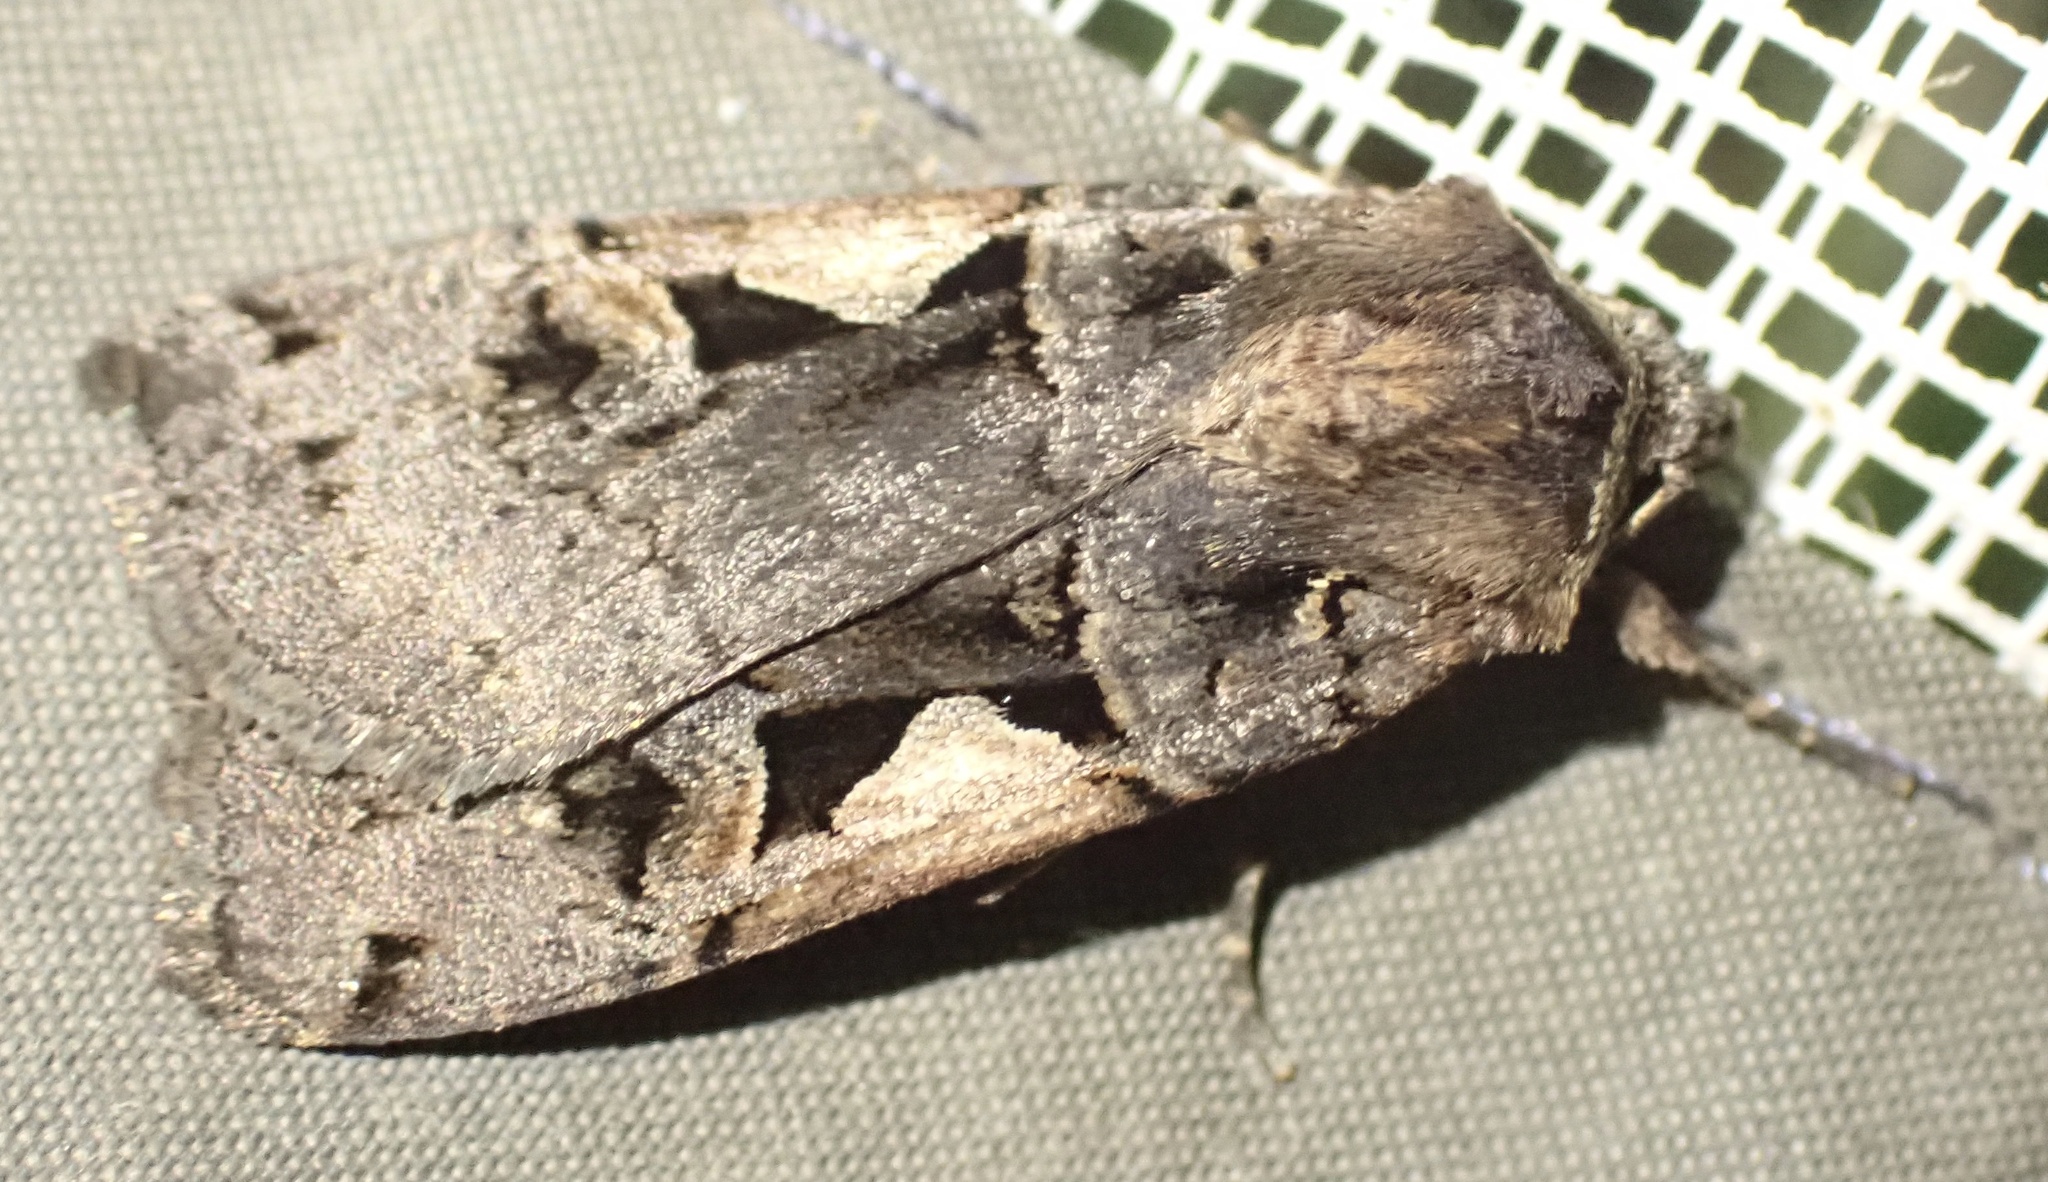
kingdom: Animalia
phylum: Arthropoda
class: Insecta
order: Lepidoptera
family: Noctuidae
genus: Xestia
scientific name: Xestia c-nigrum
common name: Setaceous hebrew character
